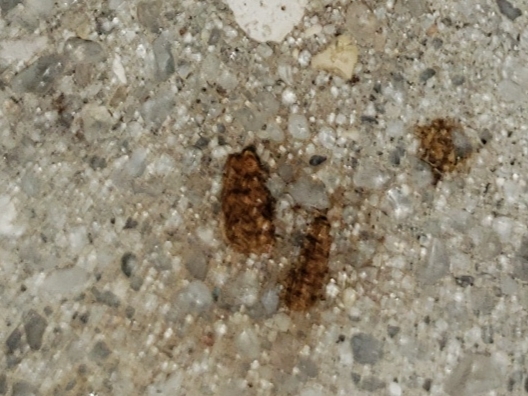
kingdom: Animalia
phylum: Arthropoda
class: Insecta
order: Lepidoptera
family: Saturniidae
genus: Anisota
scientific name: Anisota virginiensis
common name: Pink striped oakworm moth
